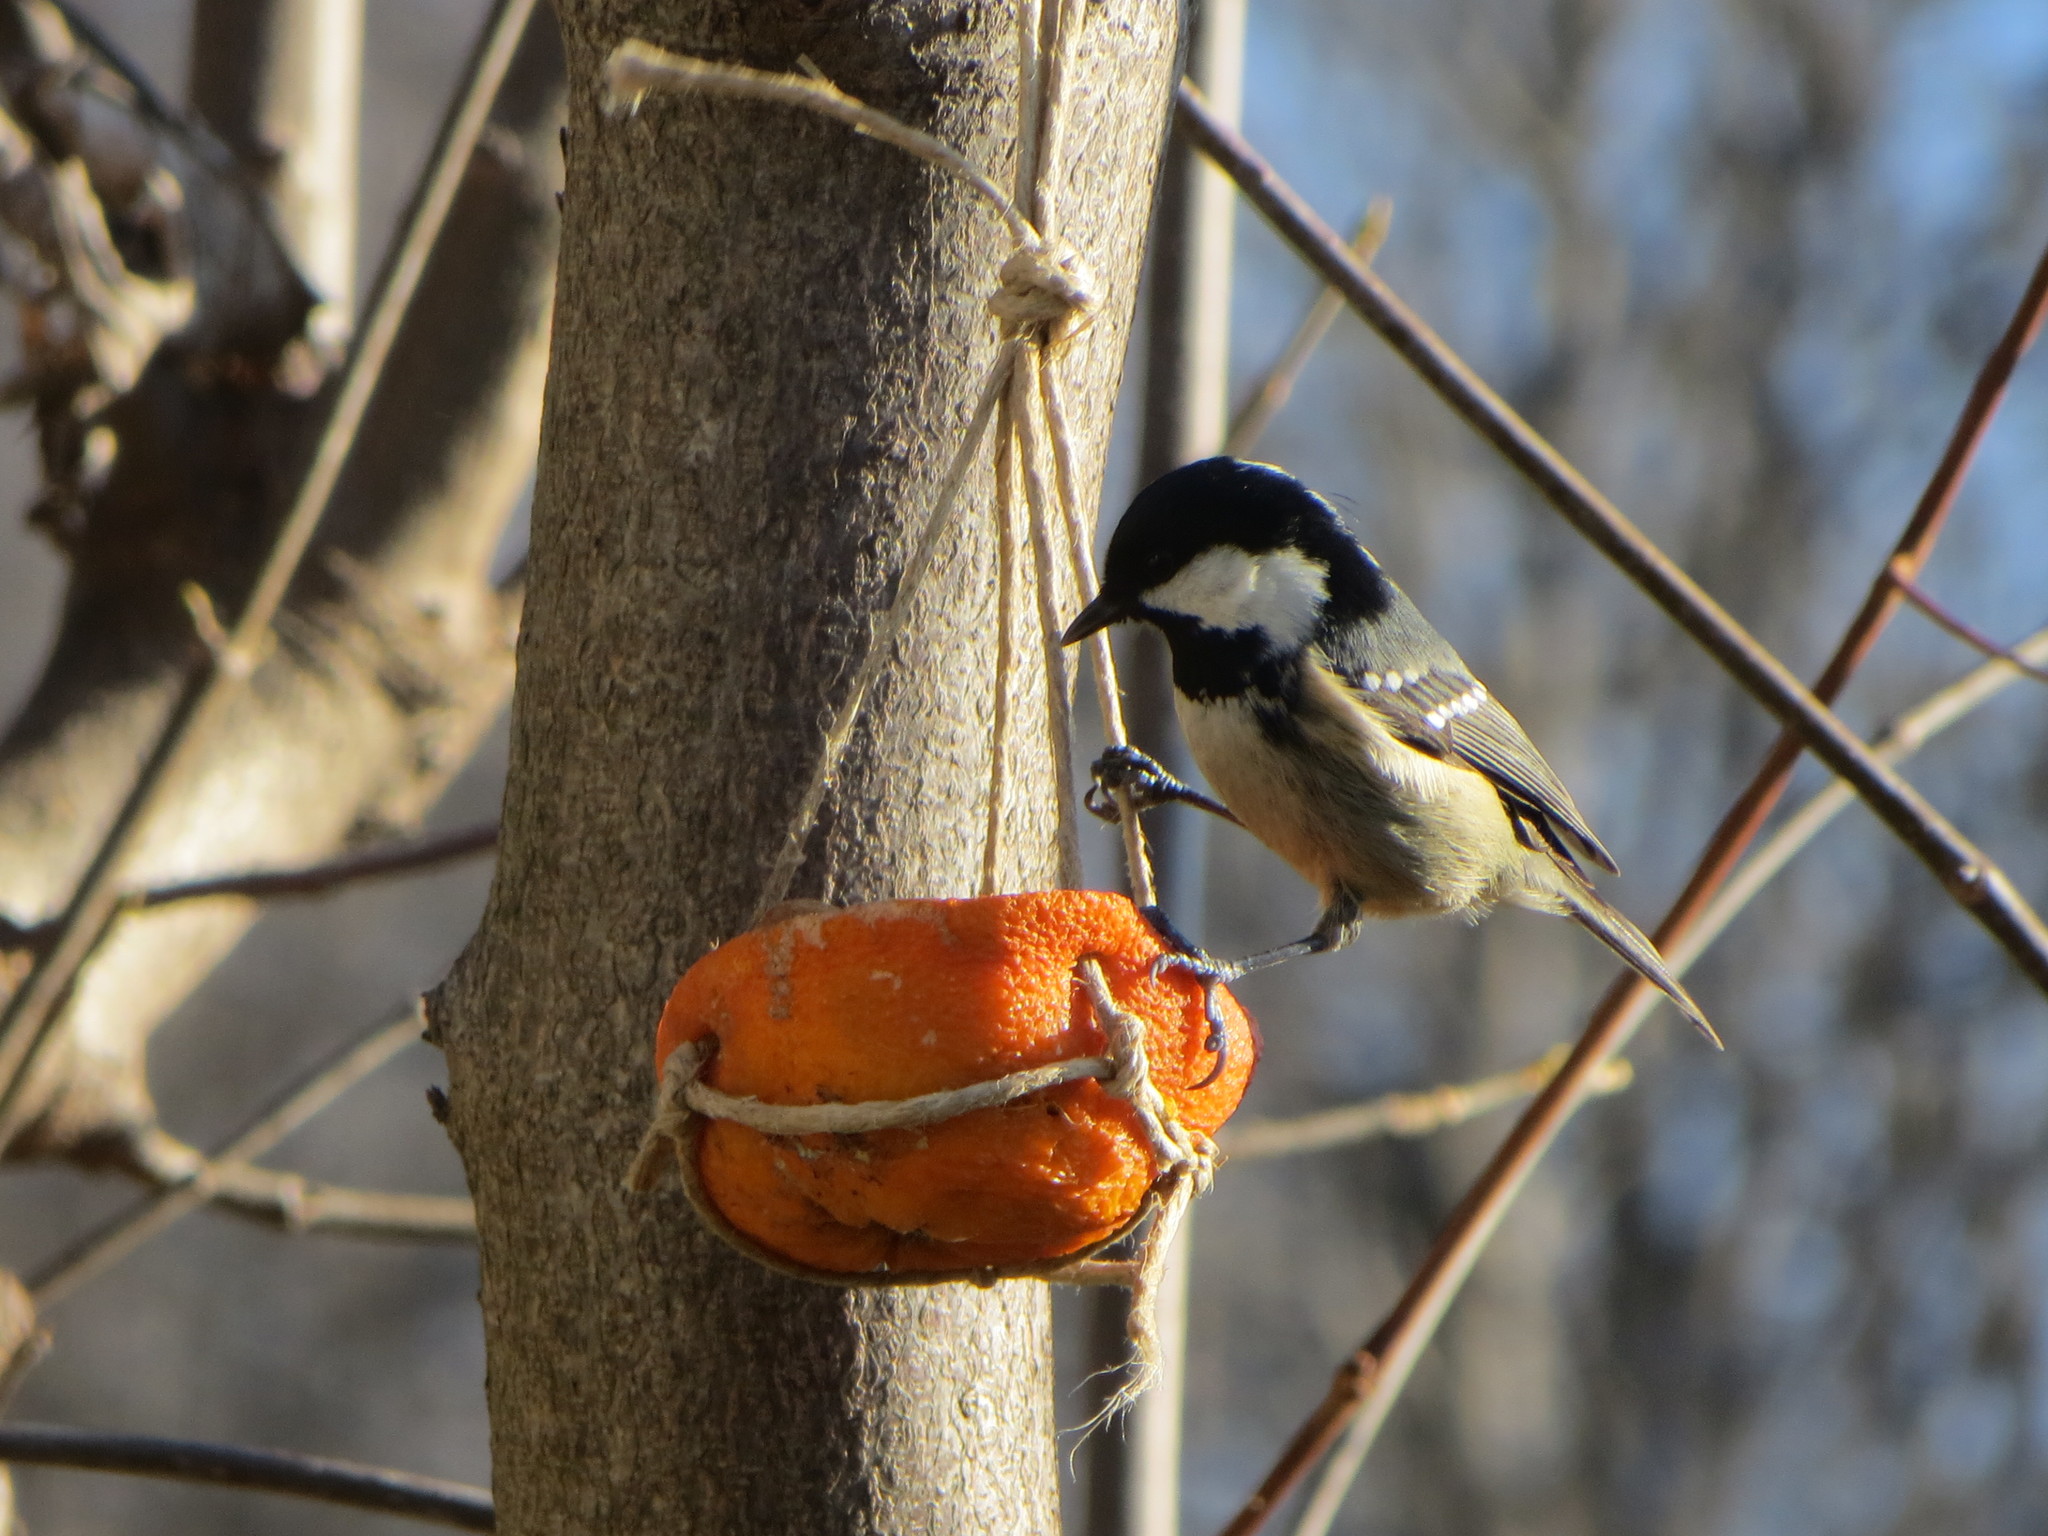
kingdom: Animalia
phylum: Chordata
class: Aves
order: Passeriformes
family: Paridae
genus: Periparus
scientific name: Periparus ater
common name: Coal tit
